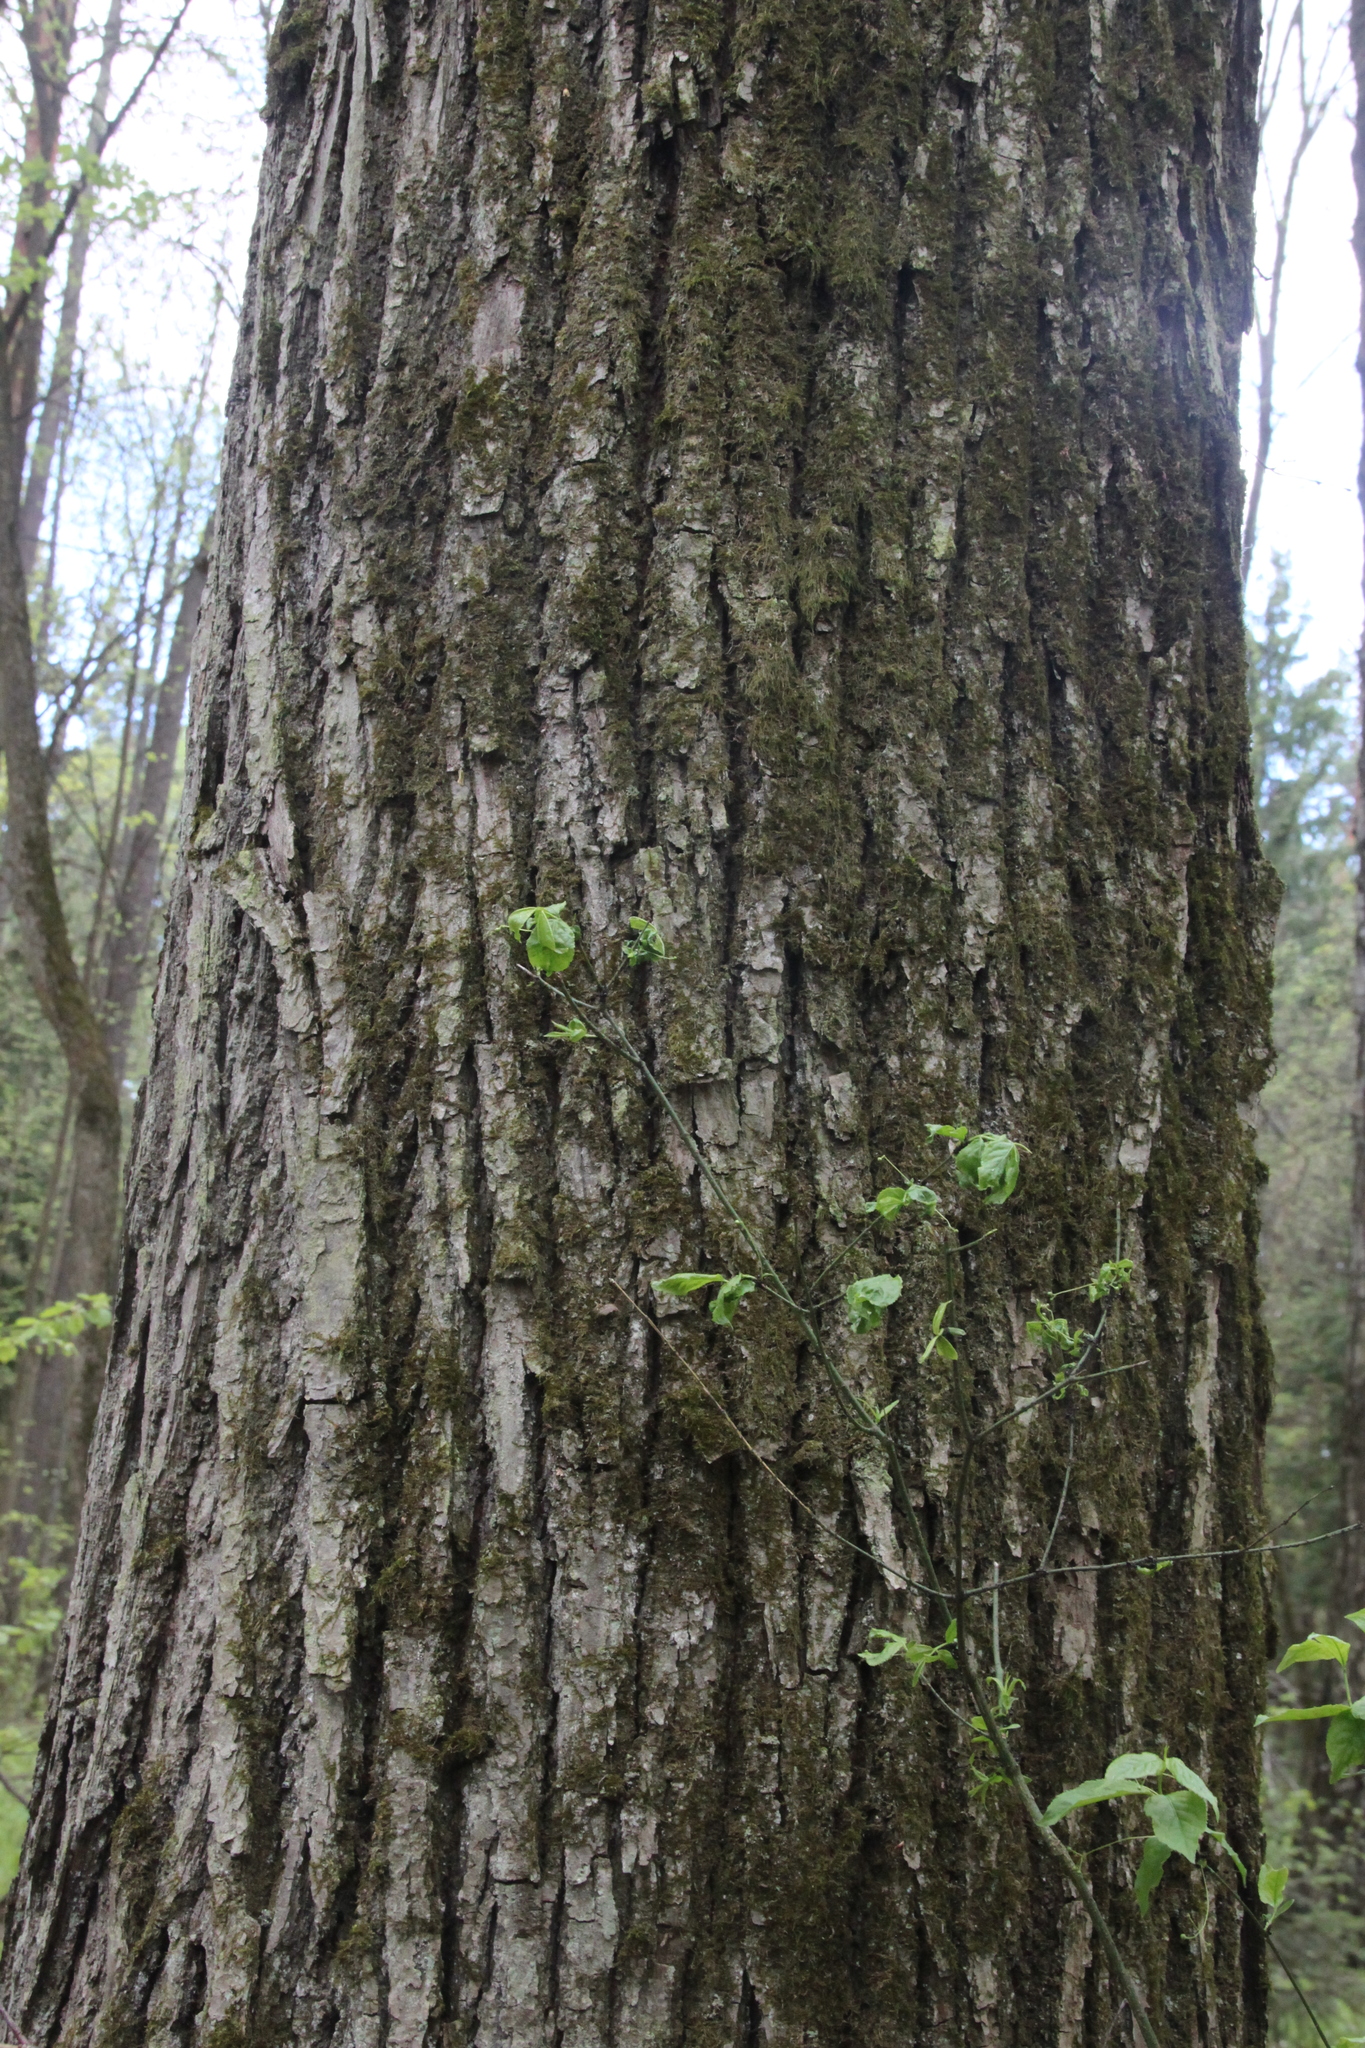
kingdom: Plantae
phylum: Tracheophyta
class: Magnoliopsida
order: Malvales
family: Malvaceae
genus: Tilia
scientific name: Tilia cordata
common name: Small-leaved lime
